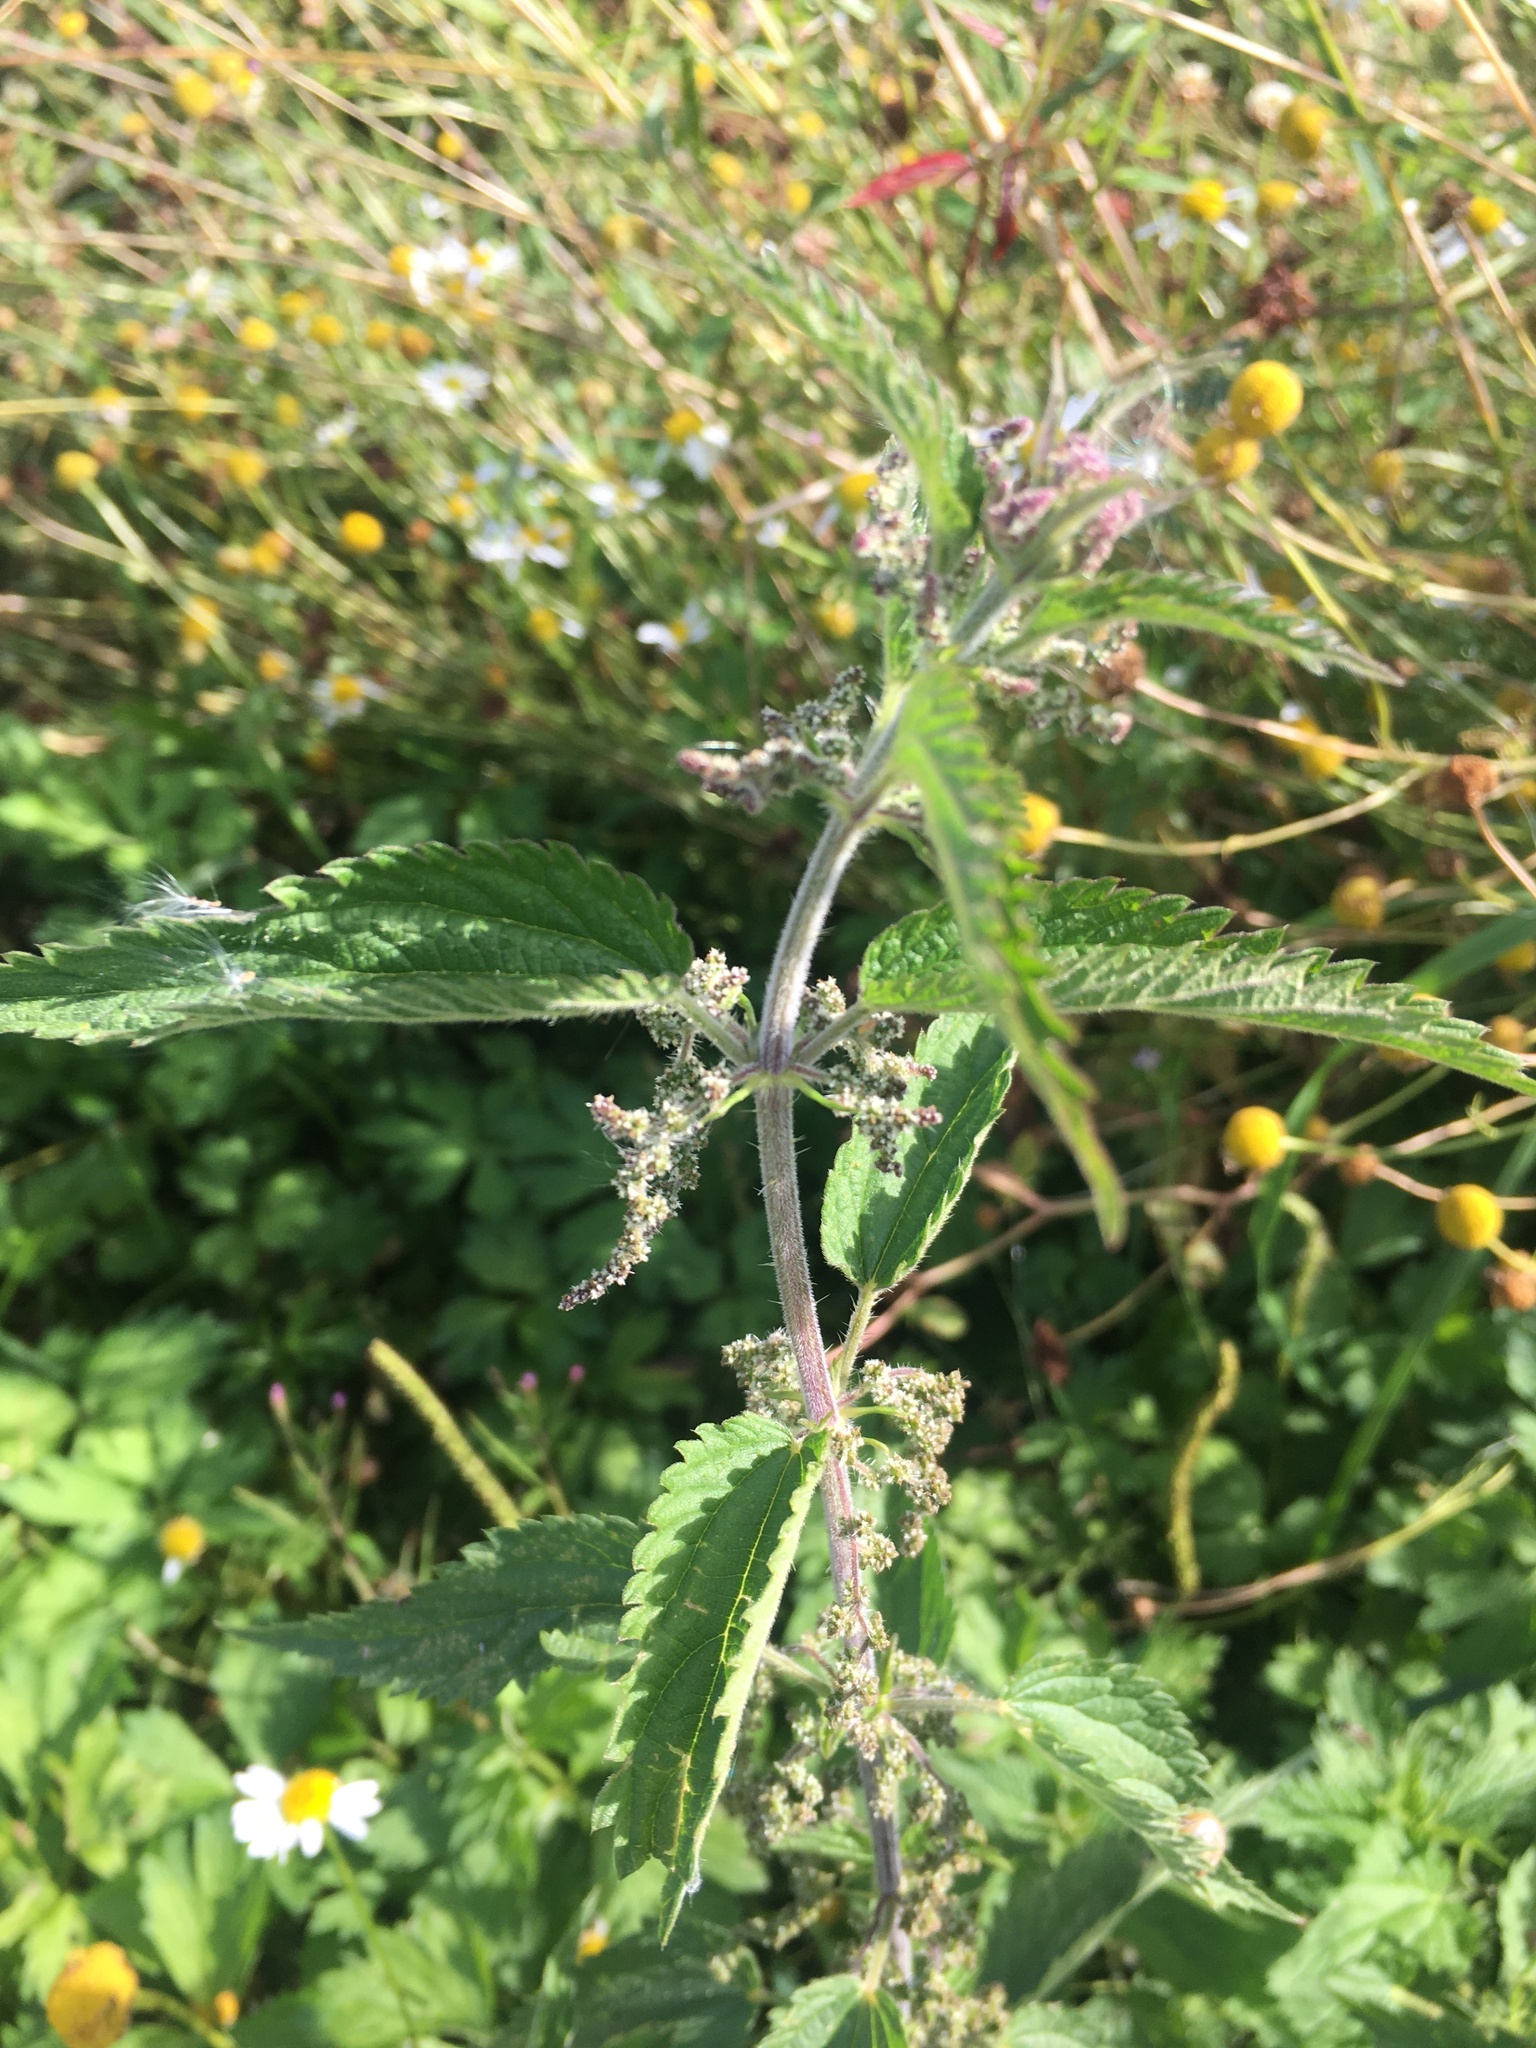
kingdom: Plantae
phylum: Tracheophyta
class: Magnoliopsida
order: Rosales
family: Urticaceae
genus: Urtica
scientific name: Urtica dioica
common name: Common nettle
